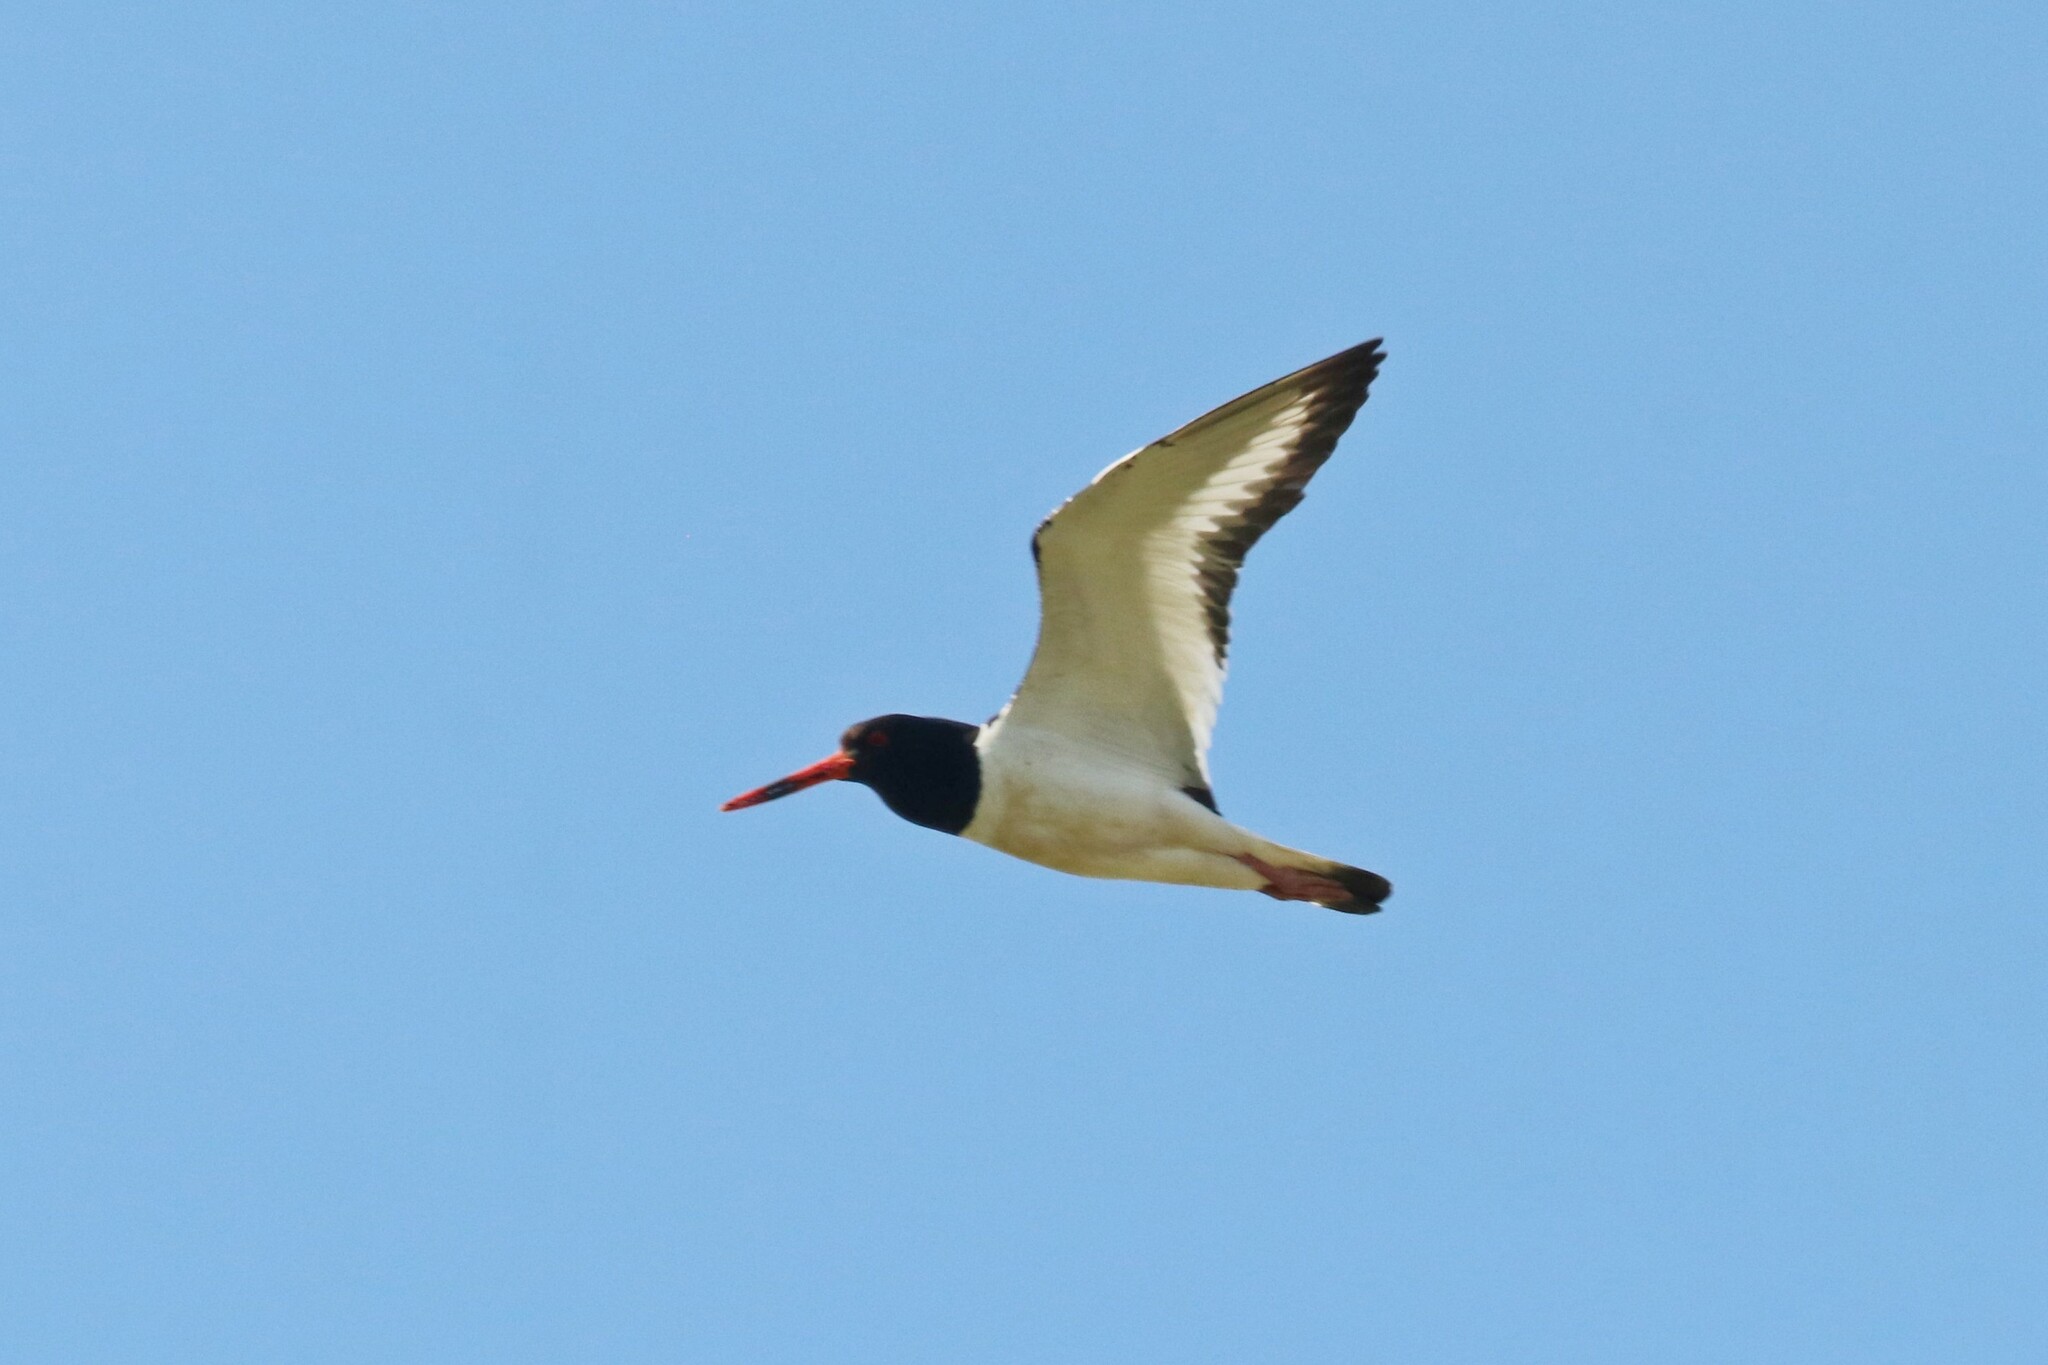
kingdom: Animalia
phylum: Chordata
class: Aves
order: Charadriiformes
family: Haematopodidae
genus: Haematopus
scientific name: Haematopus ostralegus
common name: Eurasian oystercatcher
